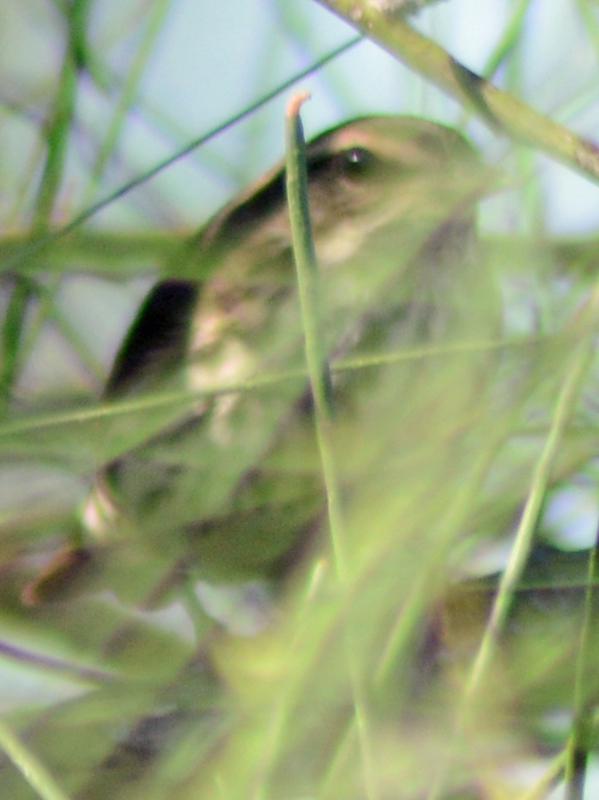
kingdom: Animalia
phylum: Chordata
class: Aves
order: Passeriformes
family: Parulidae
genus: Parkesia
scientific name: Parkesia noveboracensis
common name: Northern waterthrush
